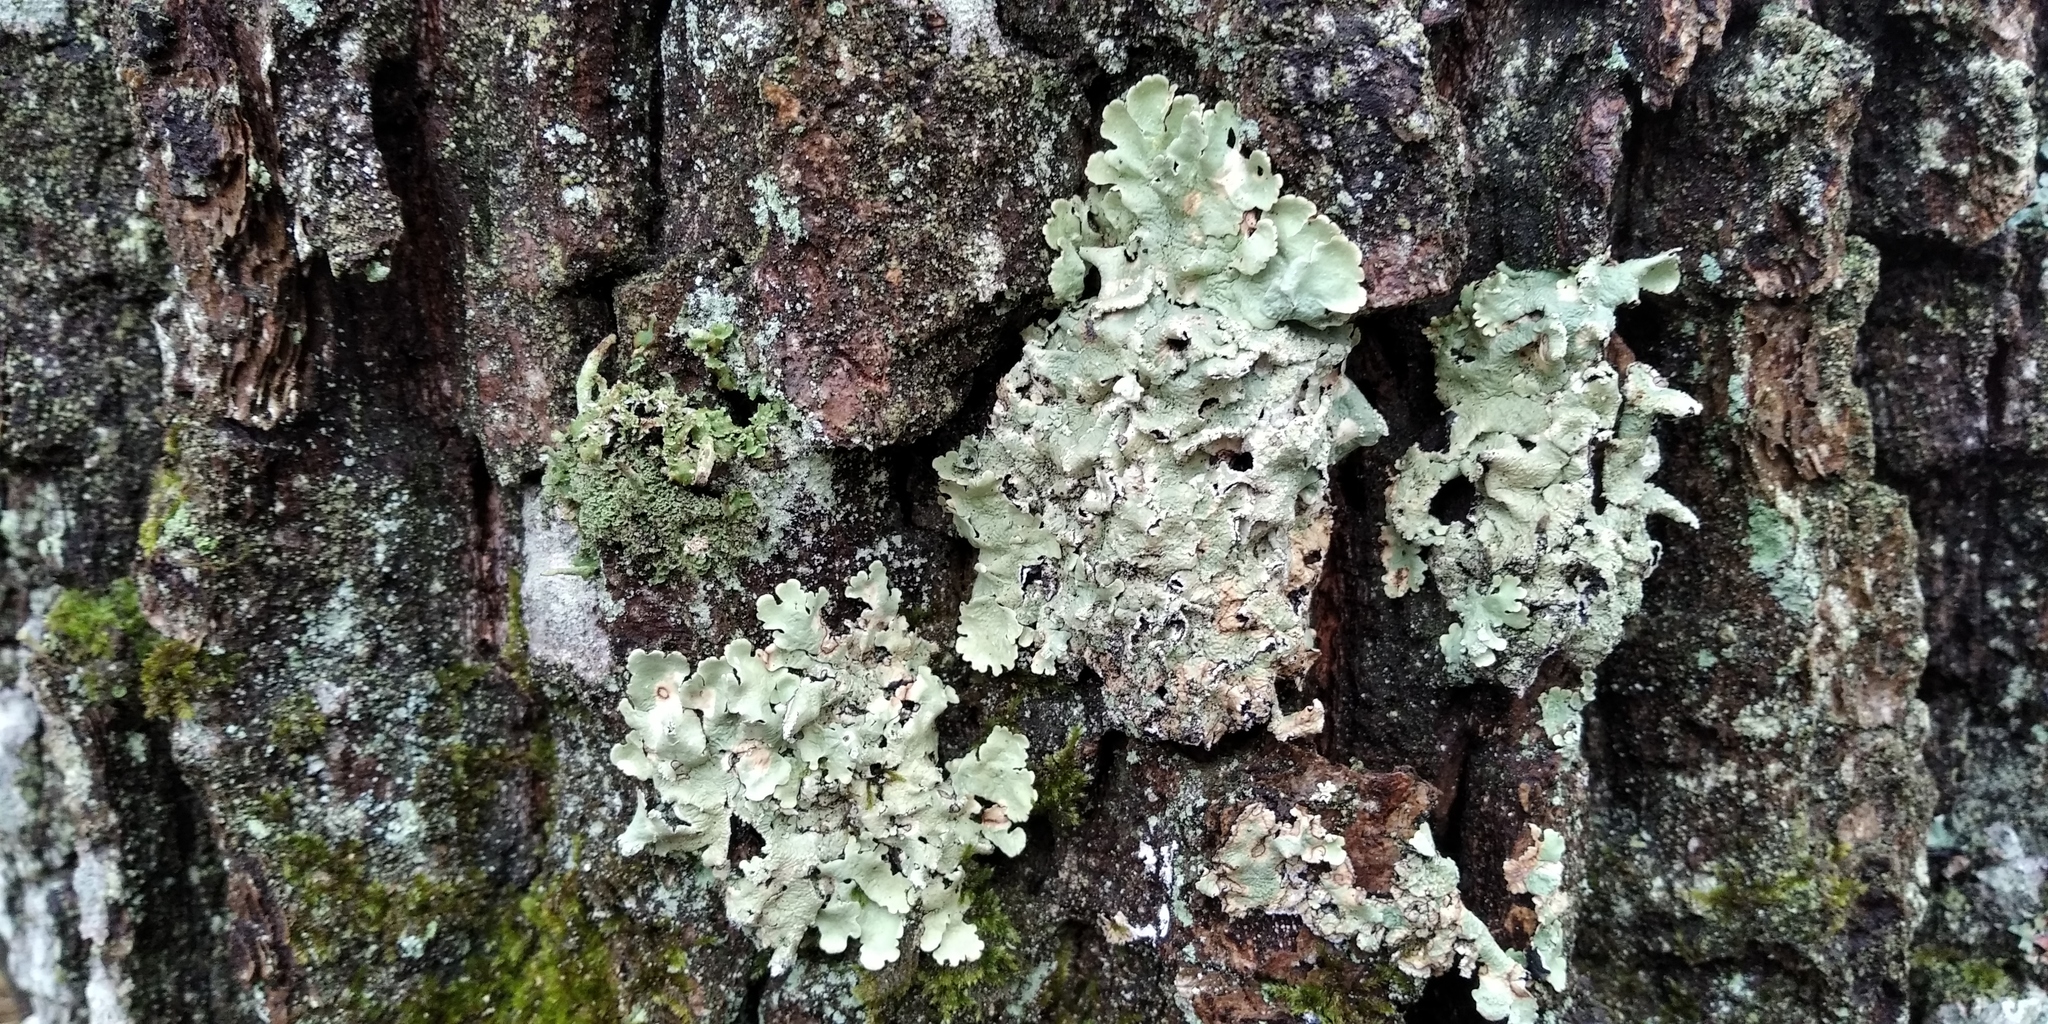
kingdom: Fungi
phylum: Ascomycota
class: Lecanoromycetes
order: Lecanorales
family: Parmeliaceae
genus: Flavoparmelia
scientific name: Flavoparmelia caperata
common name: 40-mile per hour lichen
